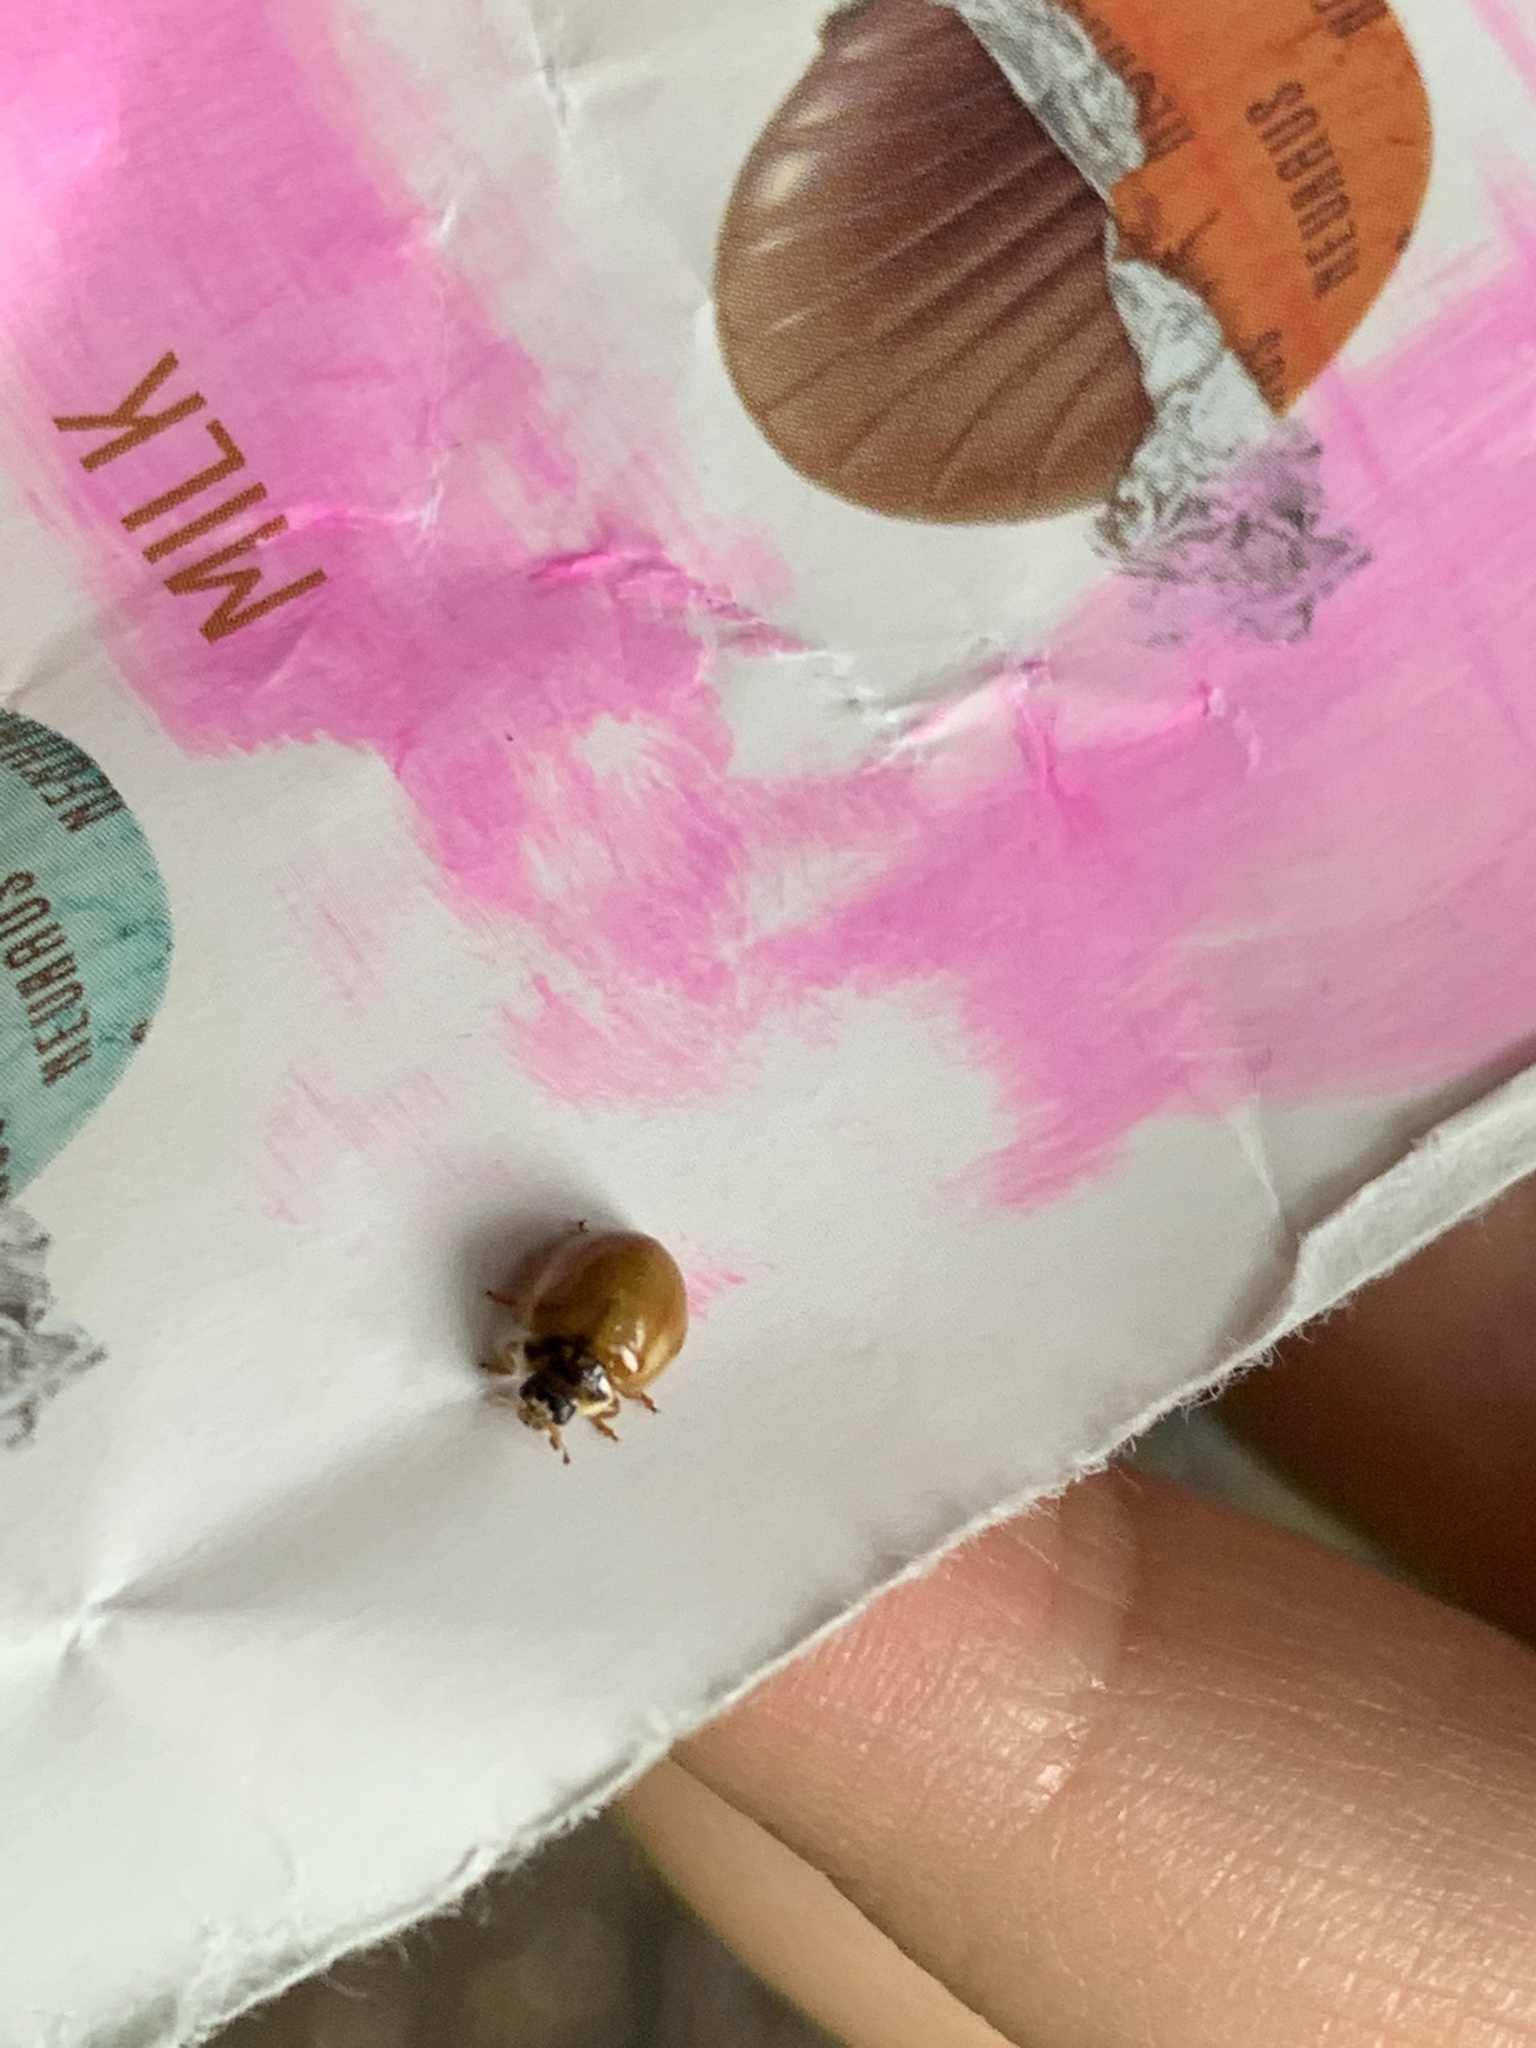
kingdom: Animalia
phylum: Arthropoda
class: Insecta
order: Coleoptera
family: Coccinellidae
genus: Adalia
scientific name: Adalia decempunctata
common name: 10-spot ladybird
